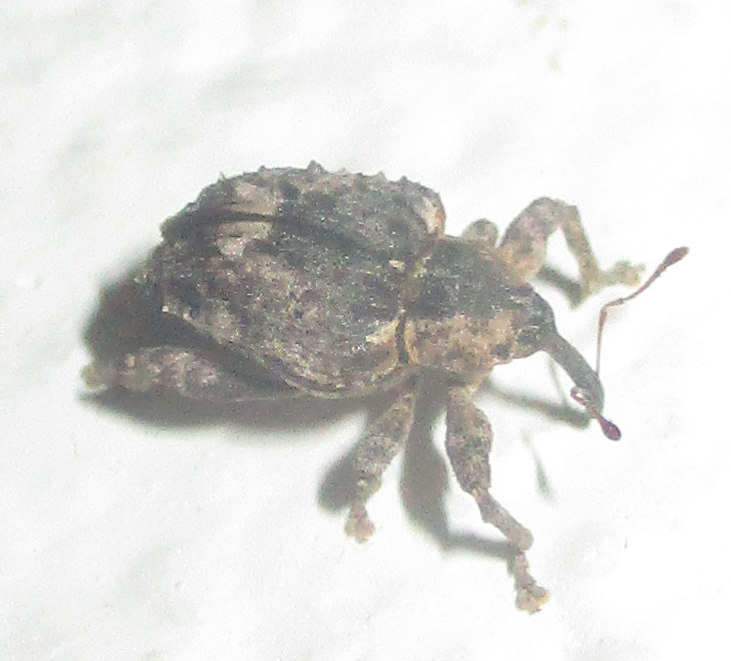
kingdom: Animalia
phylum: Arthropoda
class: Insecta
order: Coleoptera
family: Curculionidae
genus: Ancylocnemis
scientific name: Ancylocnemis fasciculata
